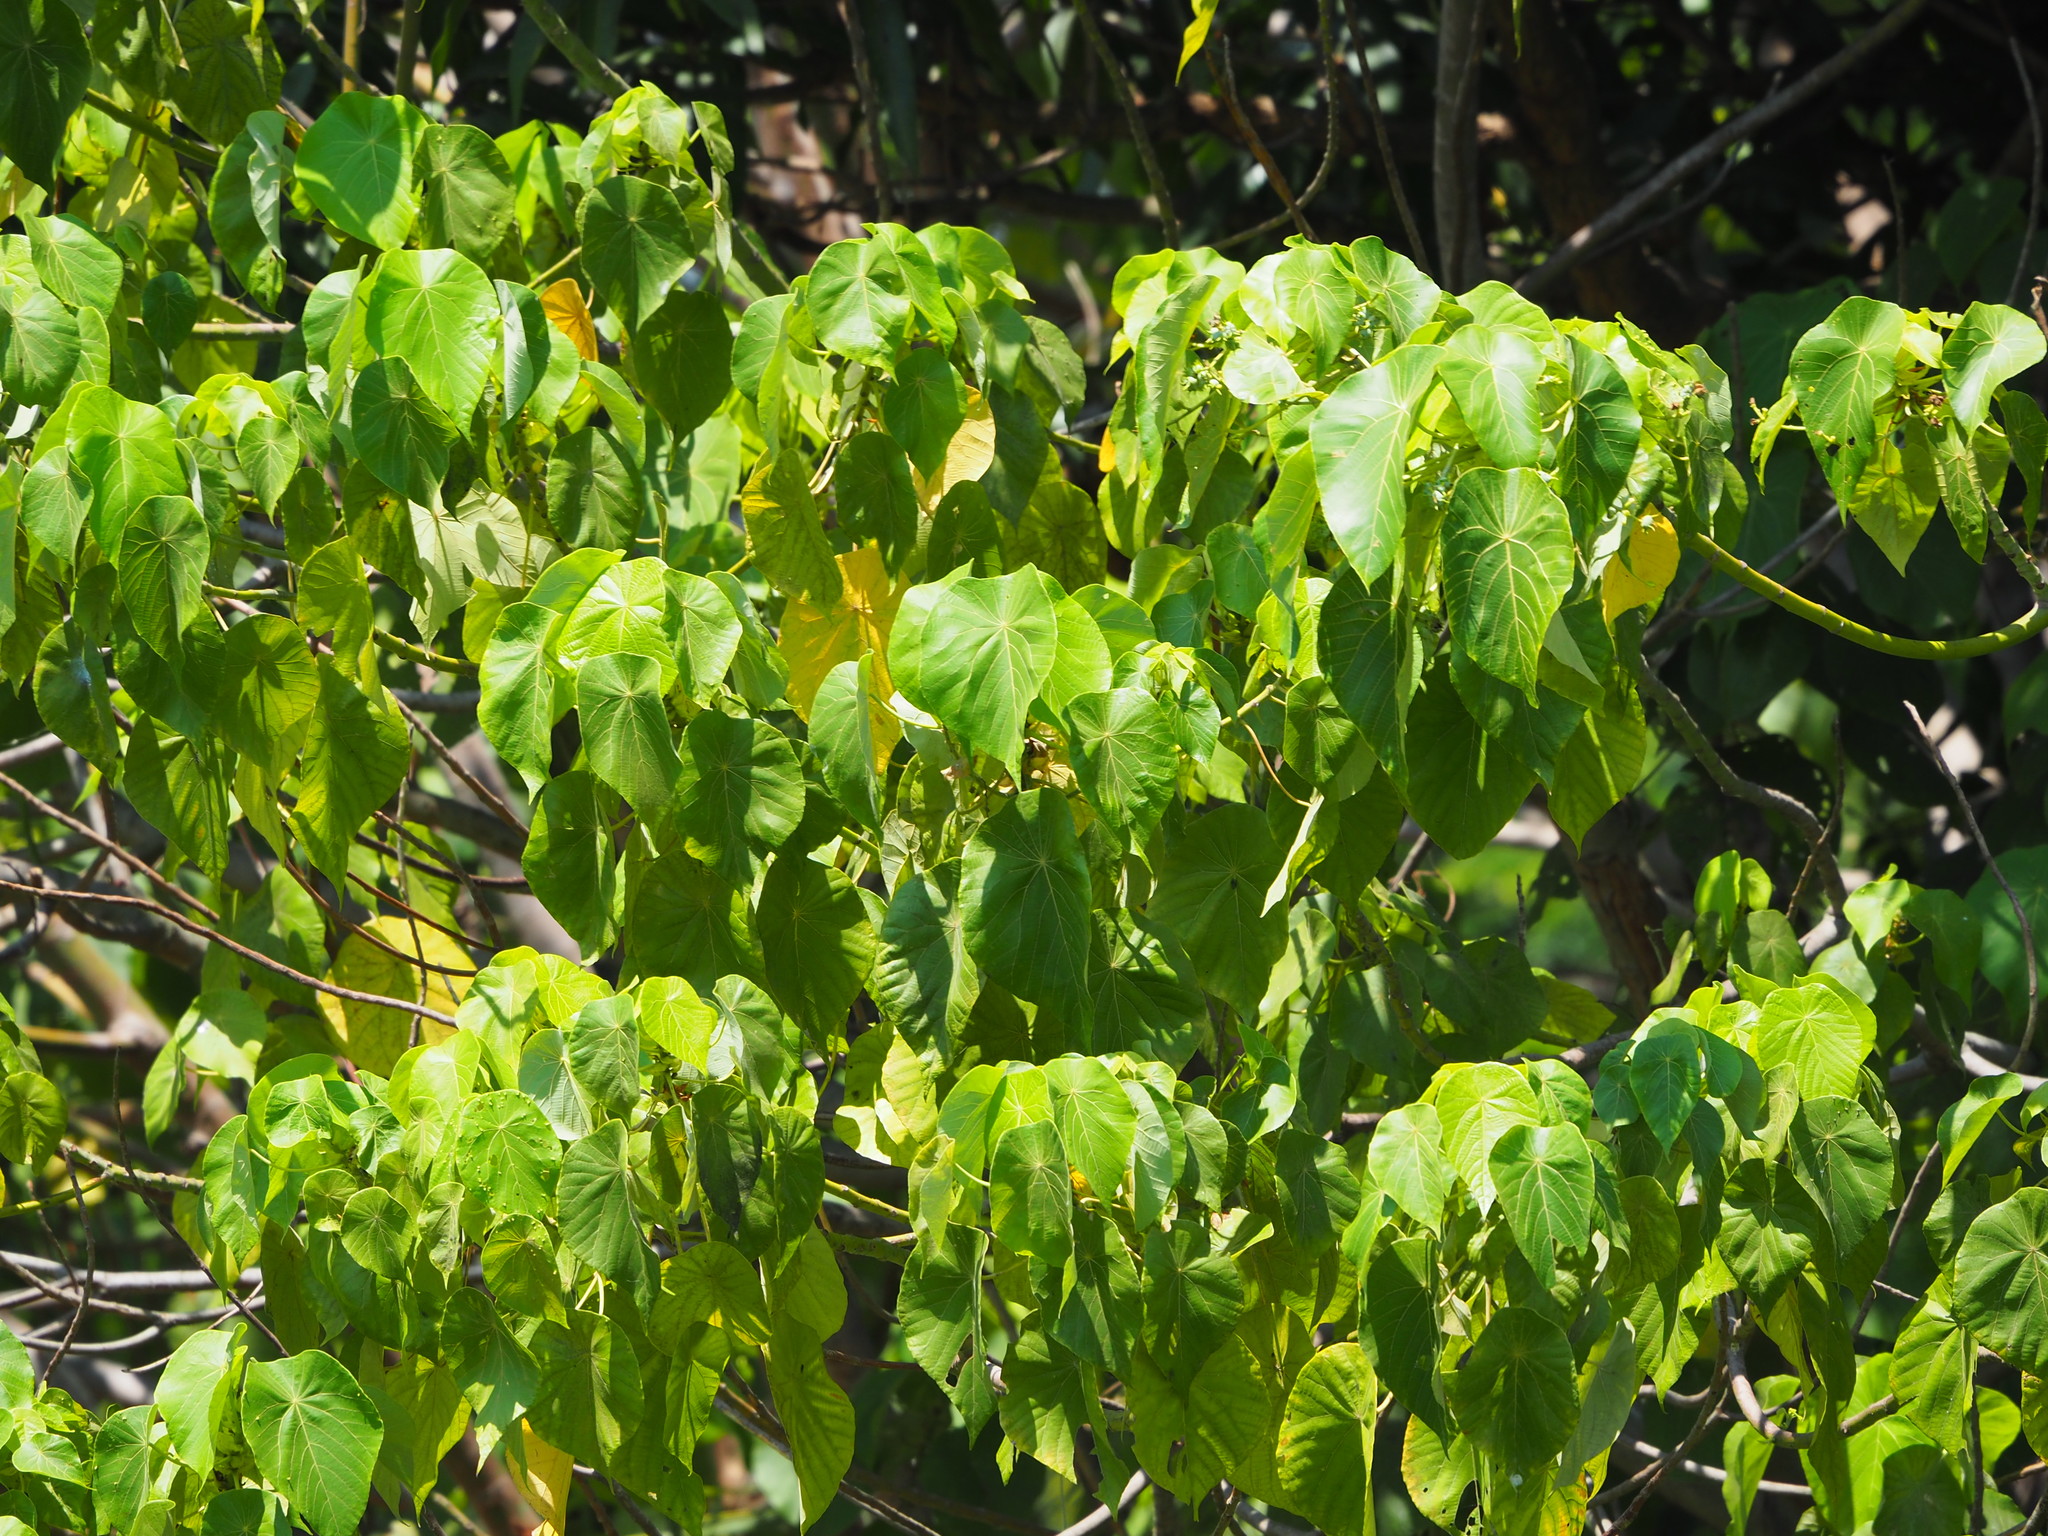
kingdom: Plantae
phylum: Tracheophyta
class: Magnoliopsida
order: Malpighiales
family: Euphorbiaceae
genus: Macaranga
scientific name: Macaranga tanarius
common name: Parasol leaf tree
